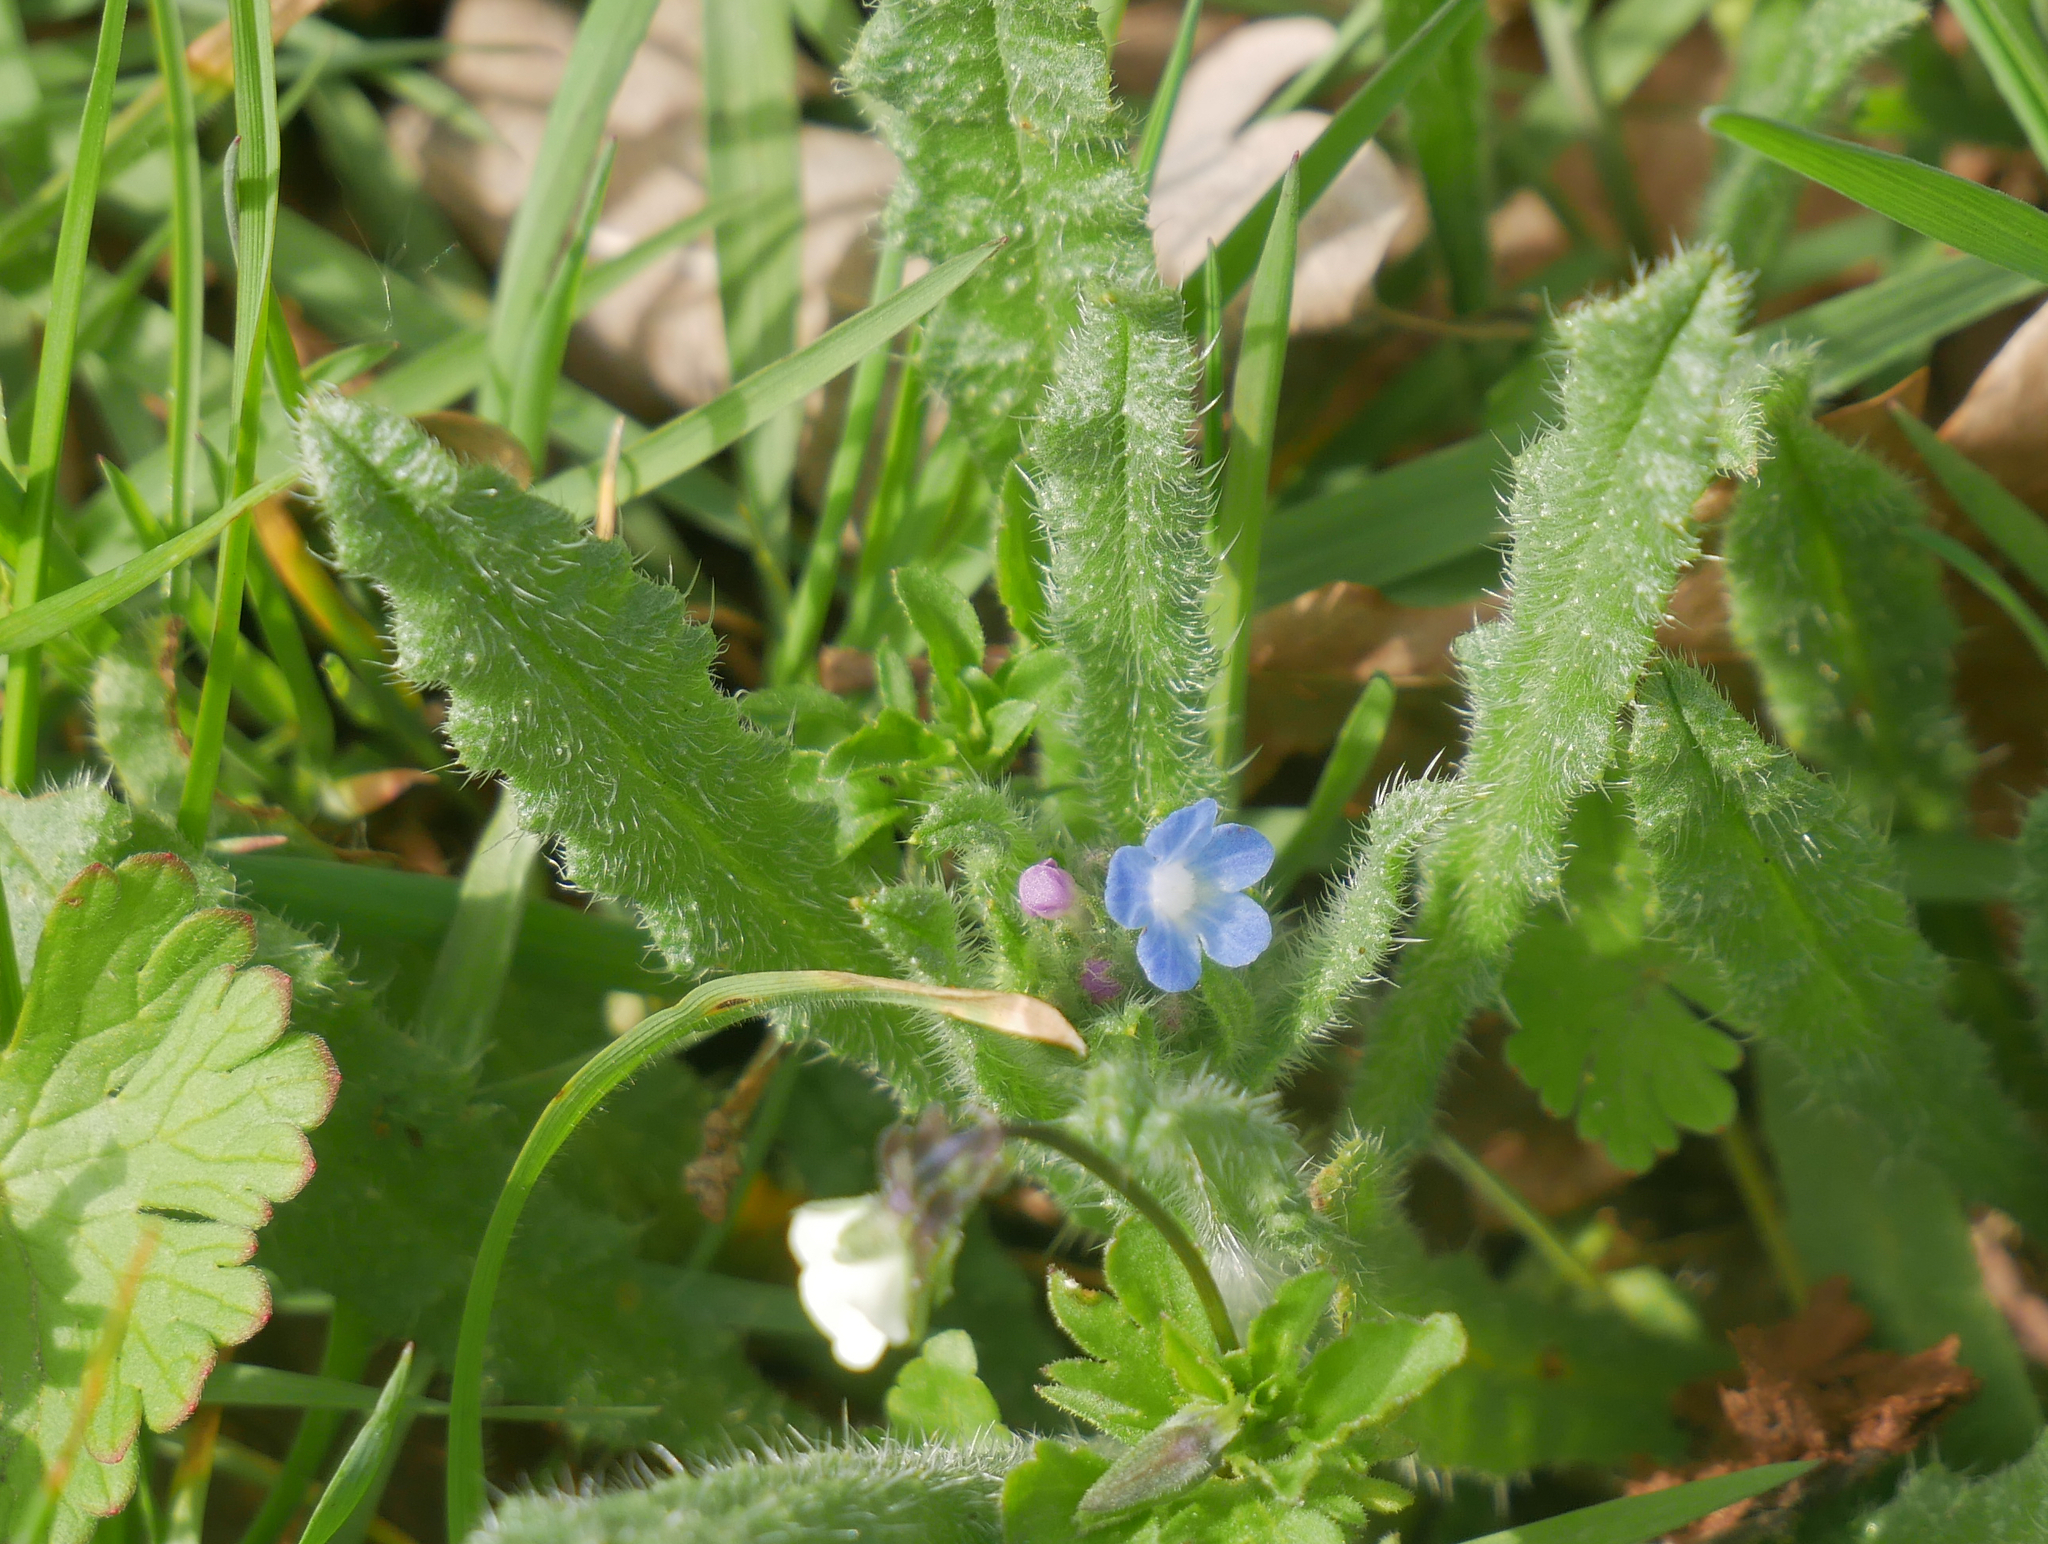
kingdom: Plantae
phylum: Tracheophyta
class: Magnoliopsida
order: Boraginales
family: Boraginaceae
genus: Lycopsis
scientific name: Lycopsis arvensis
